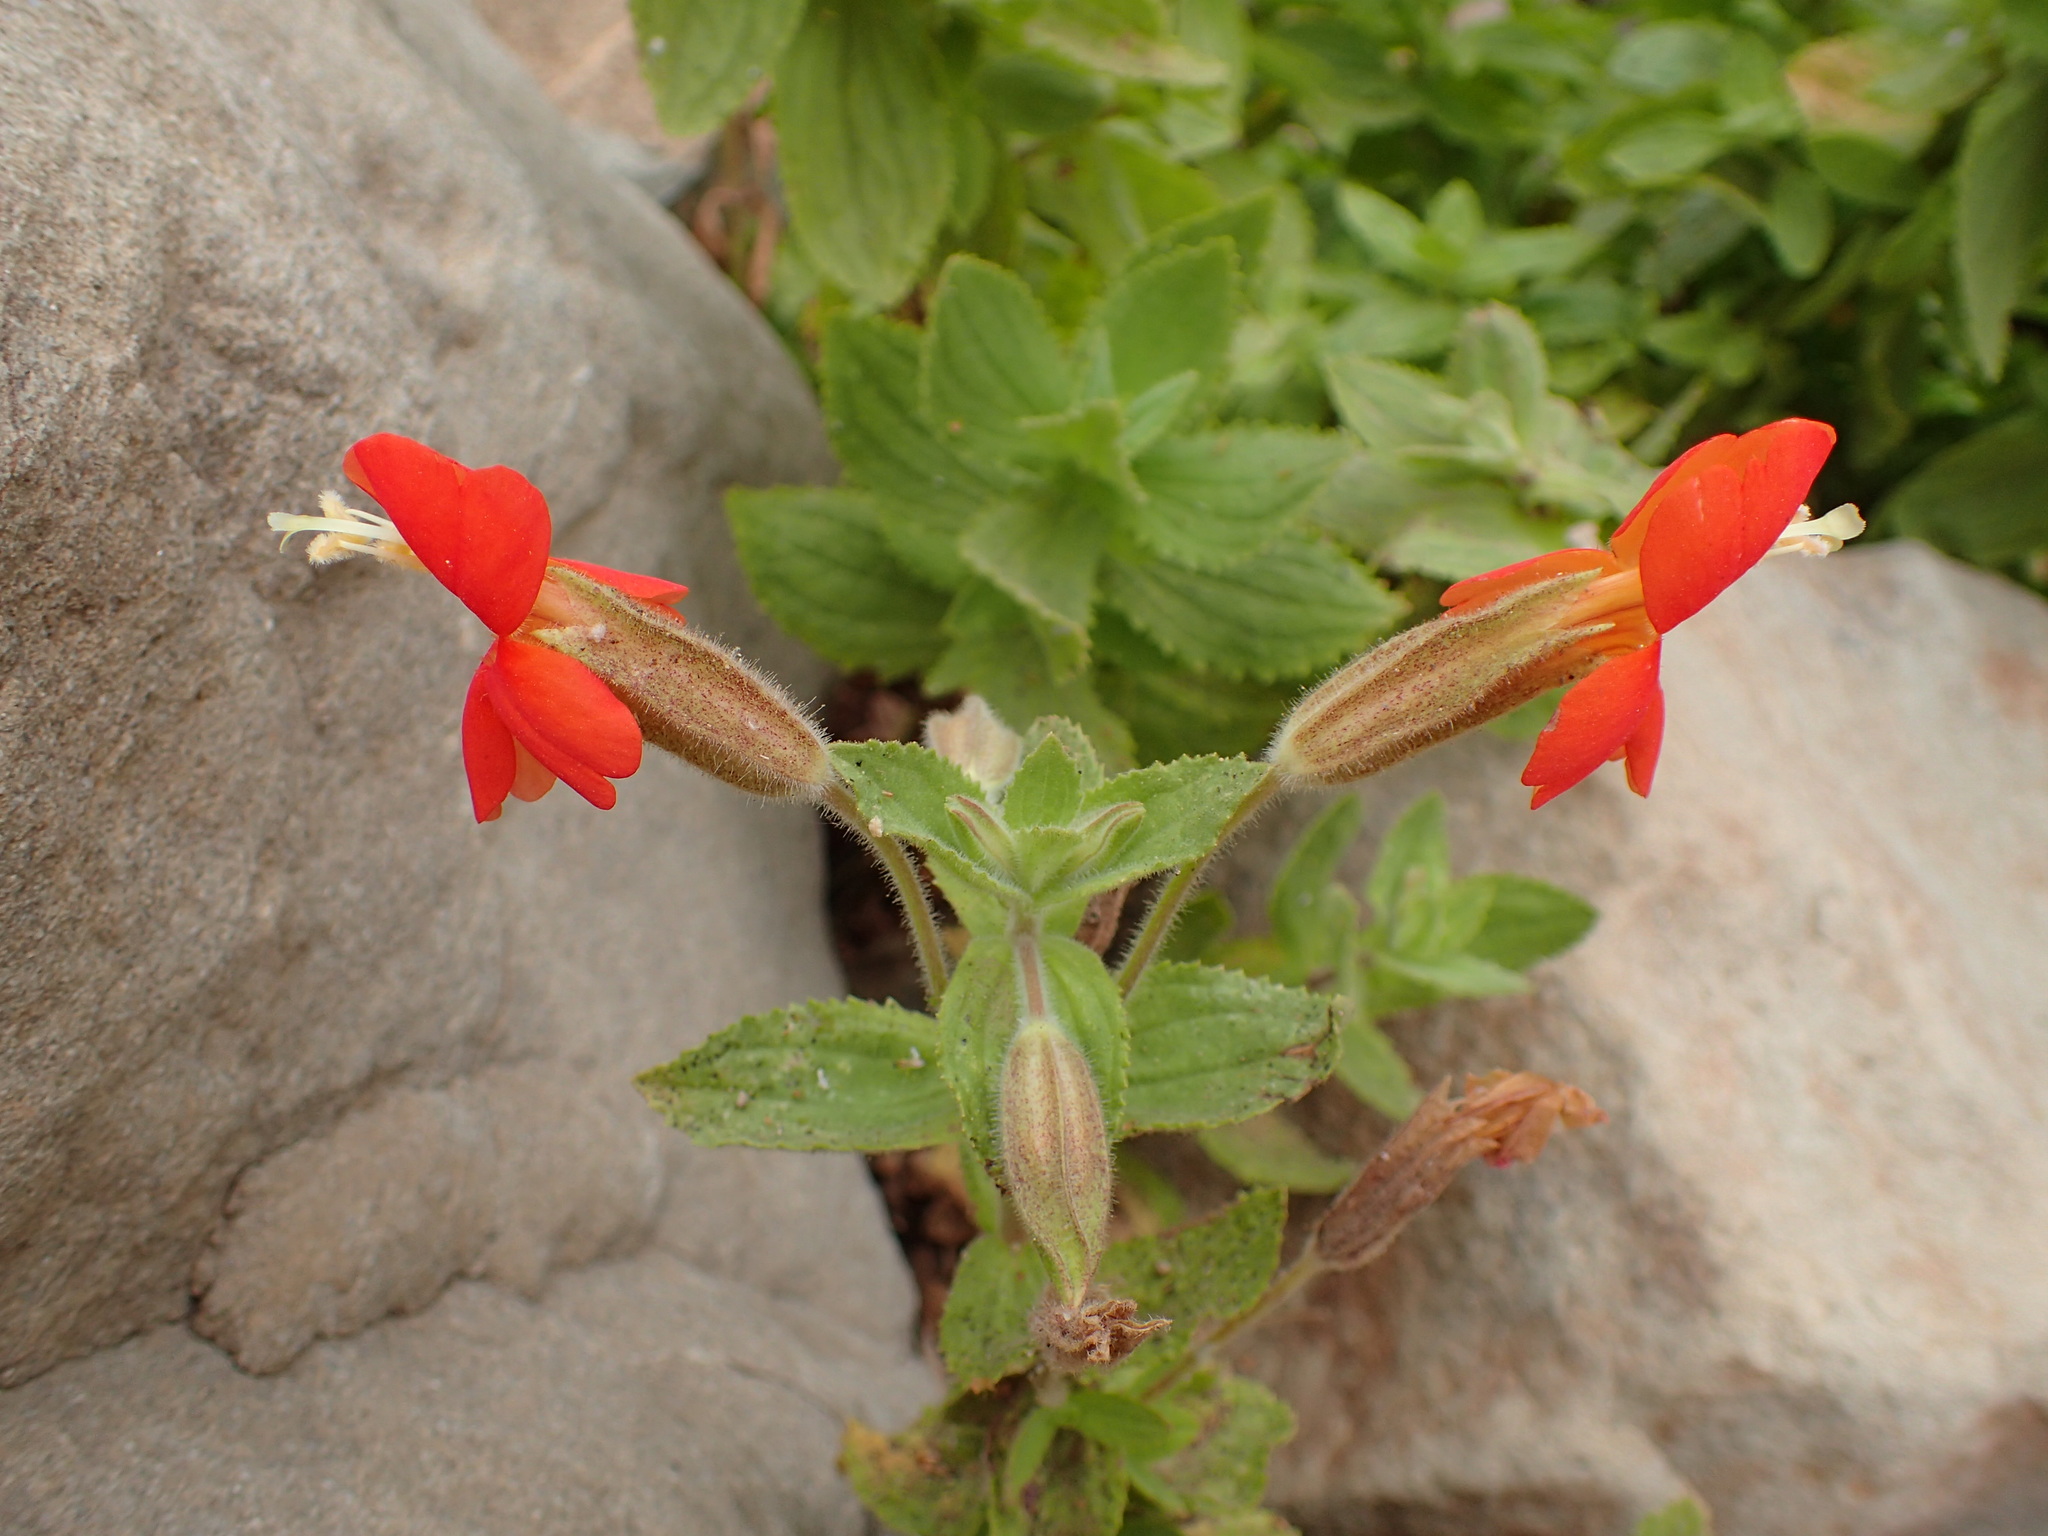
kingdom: Plantae
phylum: Tracheophyta
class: Magnoliopsida
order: Lamiales
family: Phrymaceae
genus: Erythranthe
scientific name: Erythranthe cardinalis
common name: Scarlet monkey-flower
